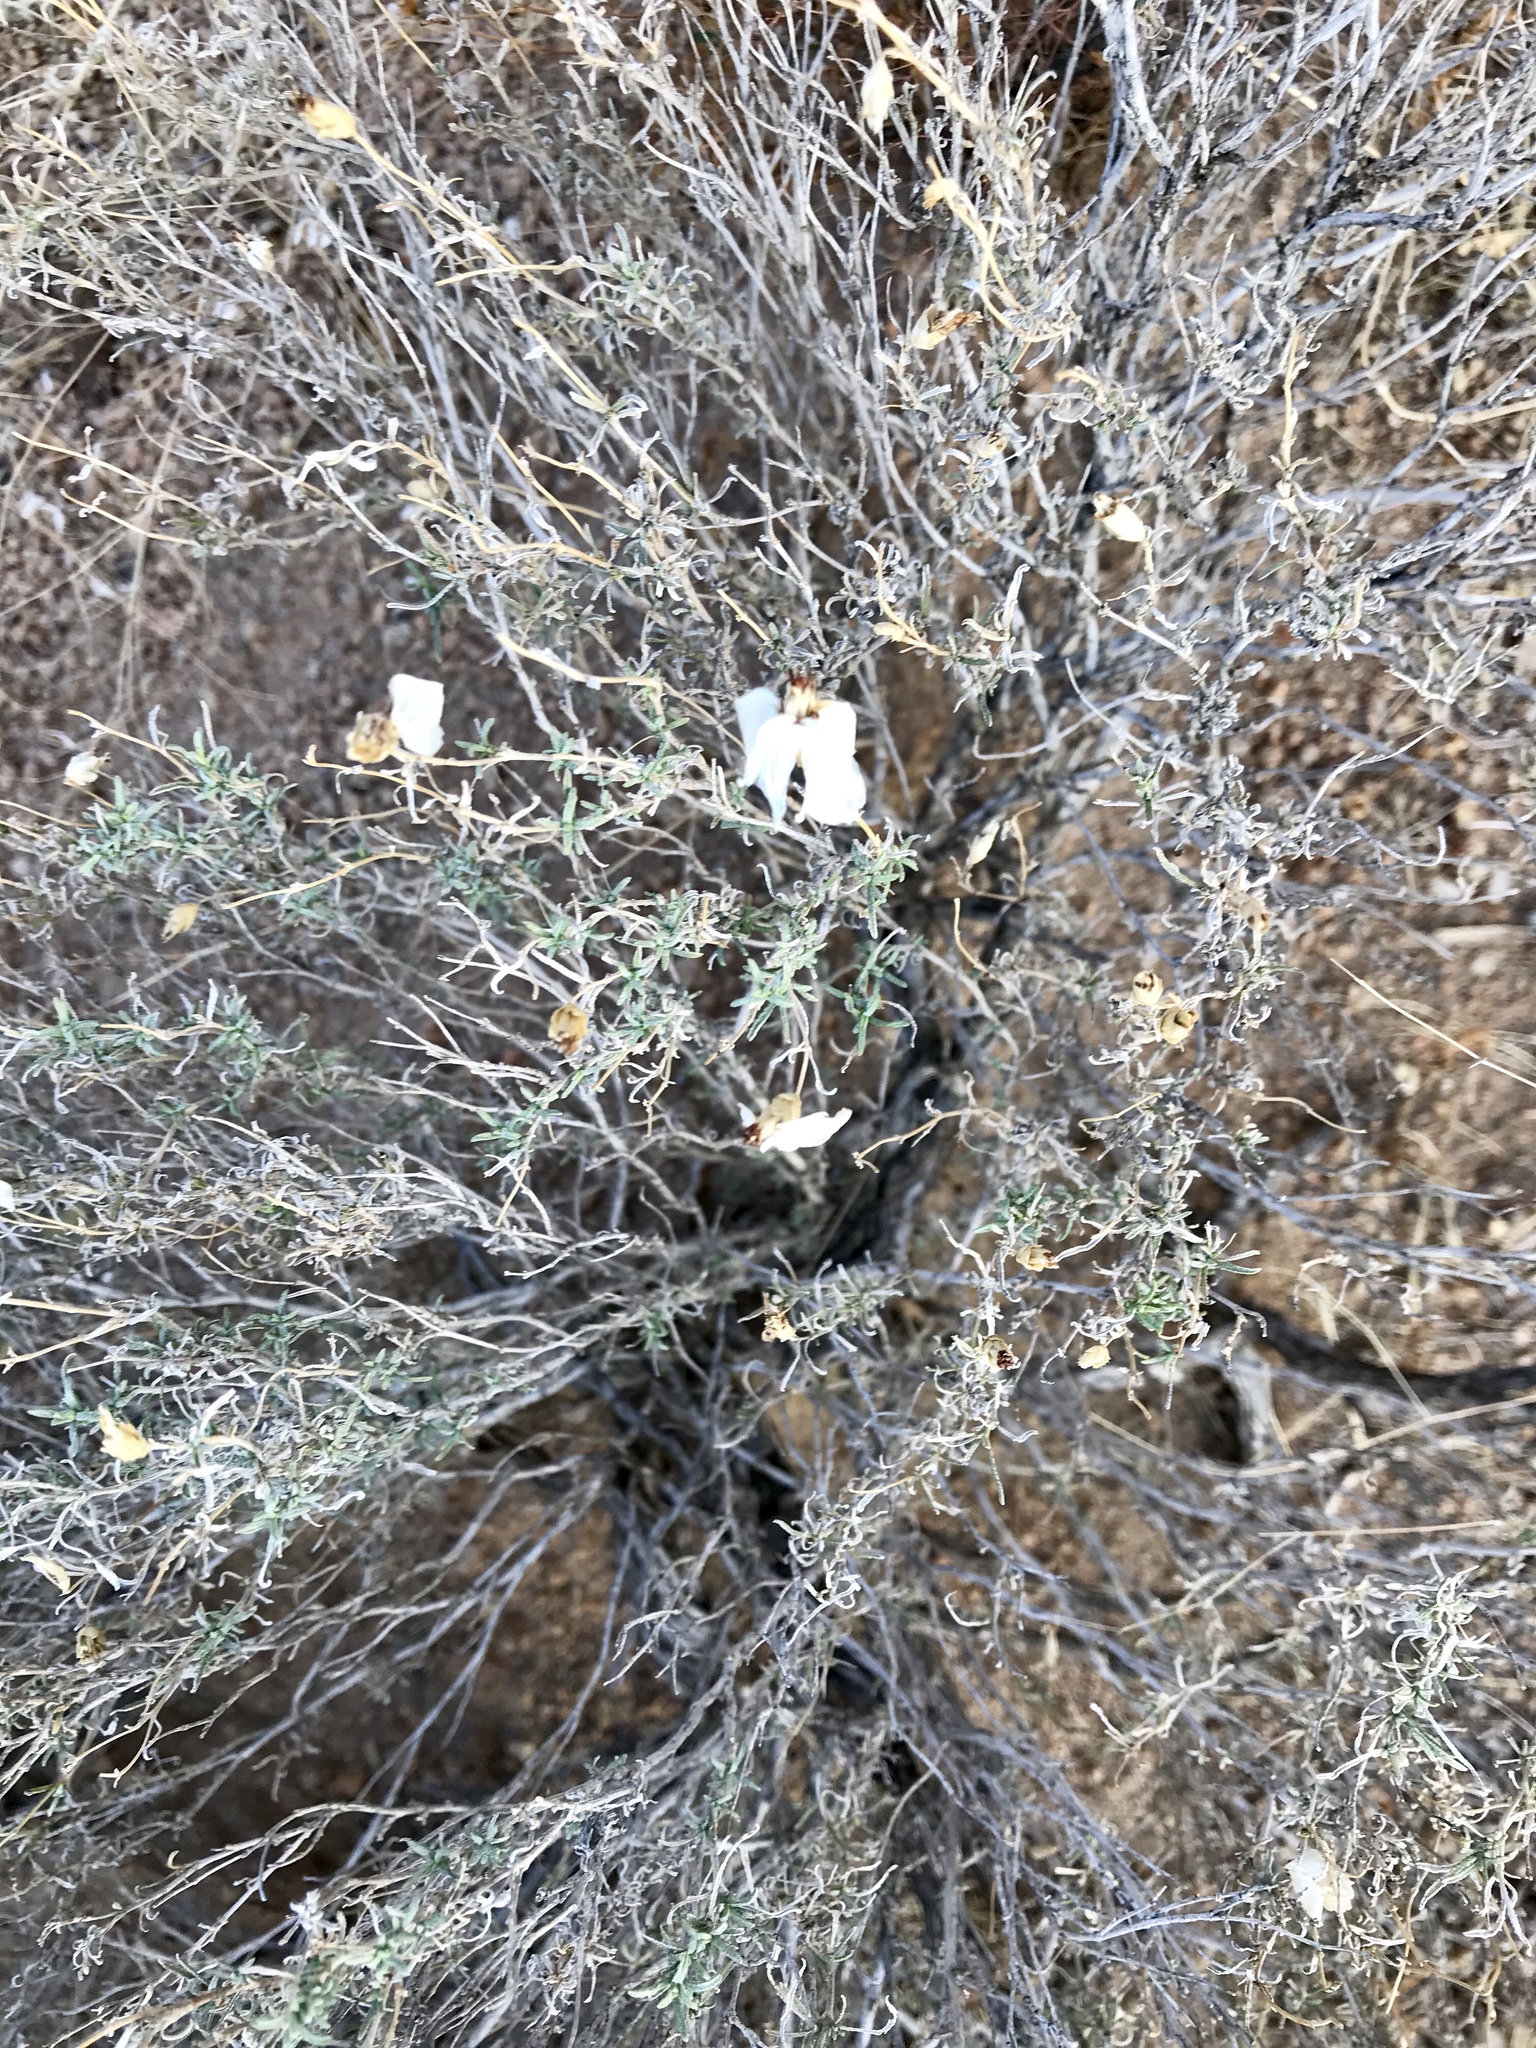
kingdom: Plantae
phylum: Tracheophyta
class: Magnoliopsida
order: Asterales
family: Asteraceae
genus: Zinnia
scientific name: Zinnia acerosa
